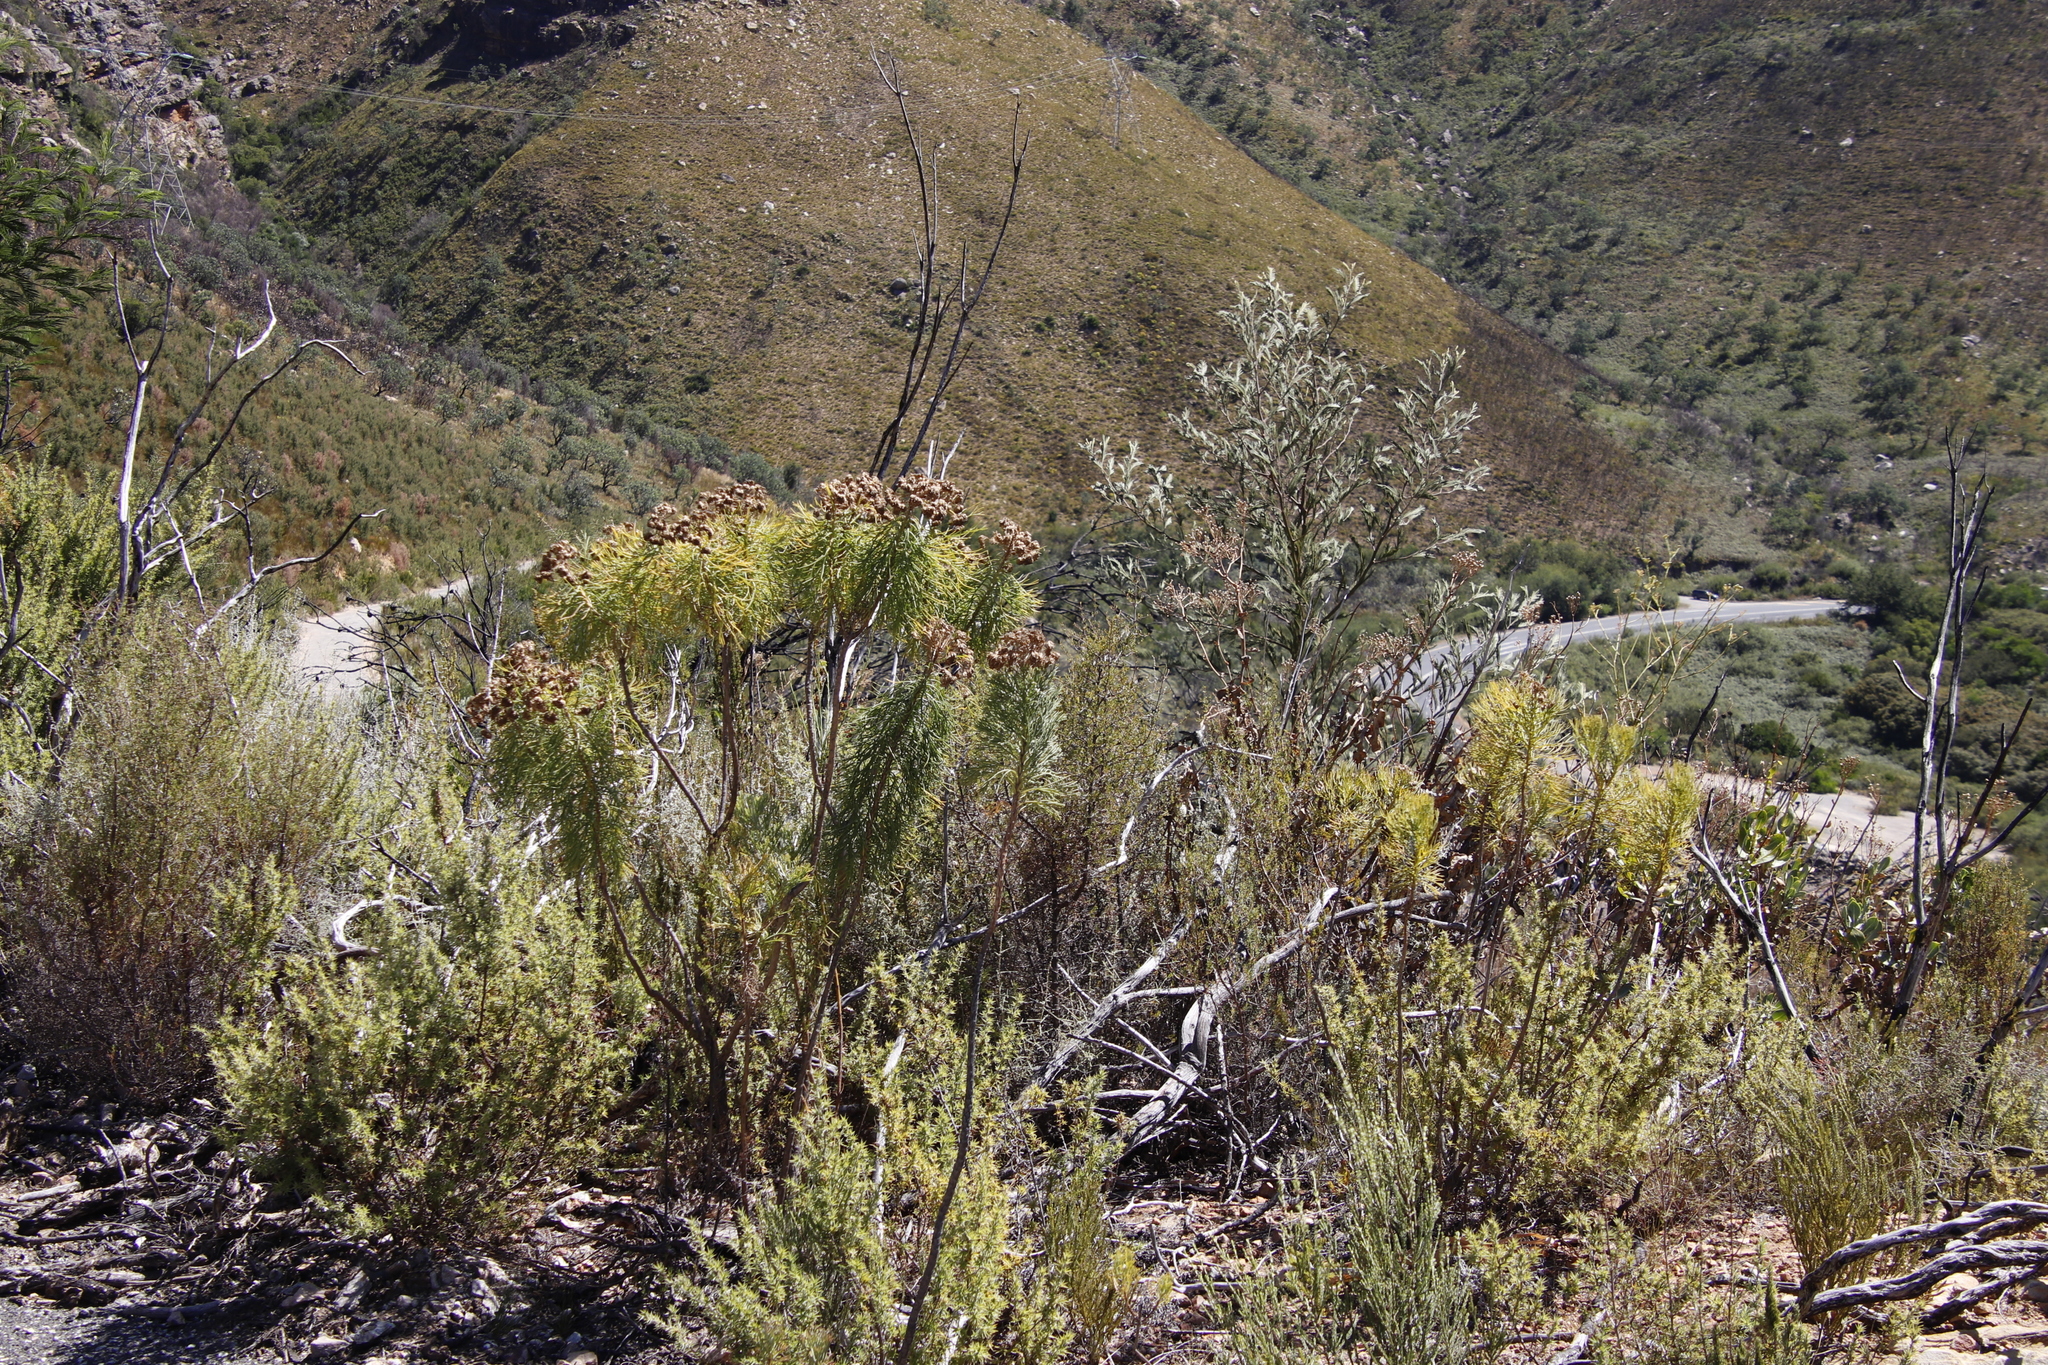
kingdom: Plantae
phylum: Tracheophyta
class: Magnoliopsida
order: Asterales
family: Asteraceae
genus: Athanasia
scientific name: Athanasia crithmifolia
